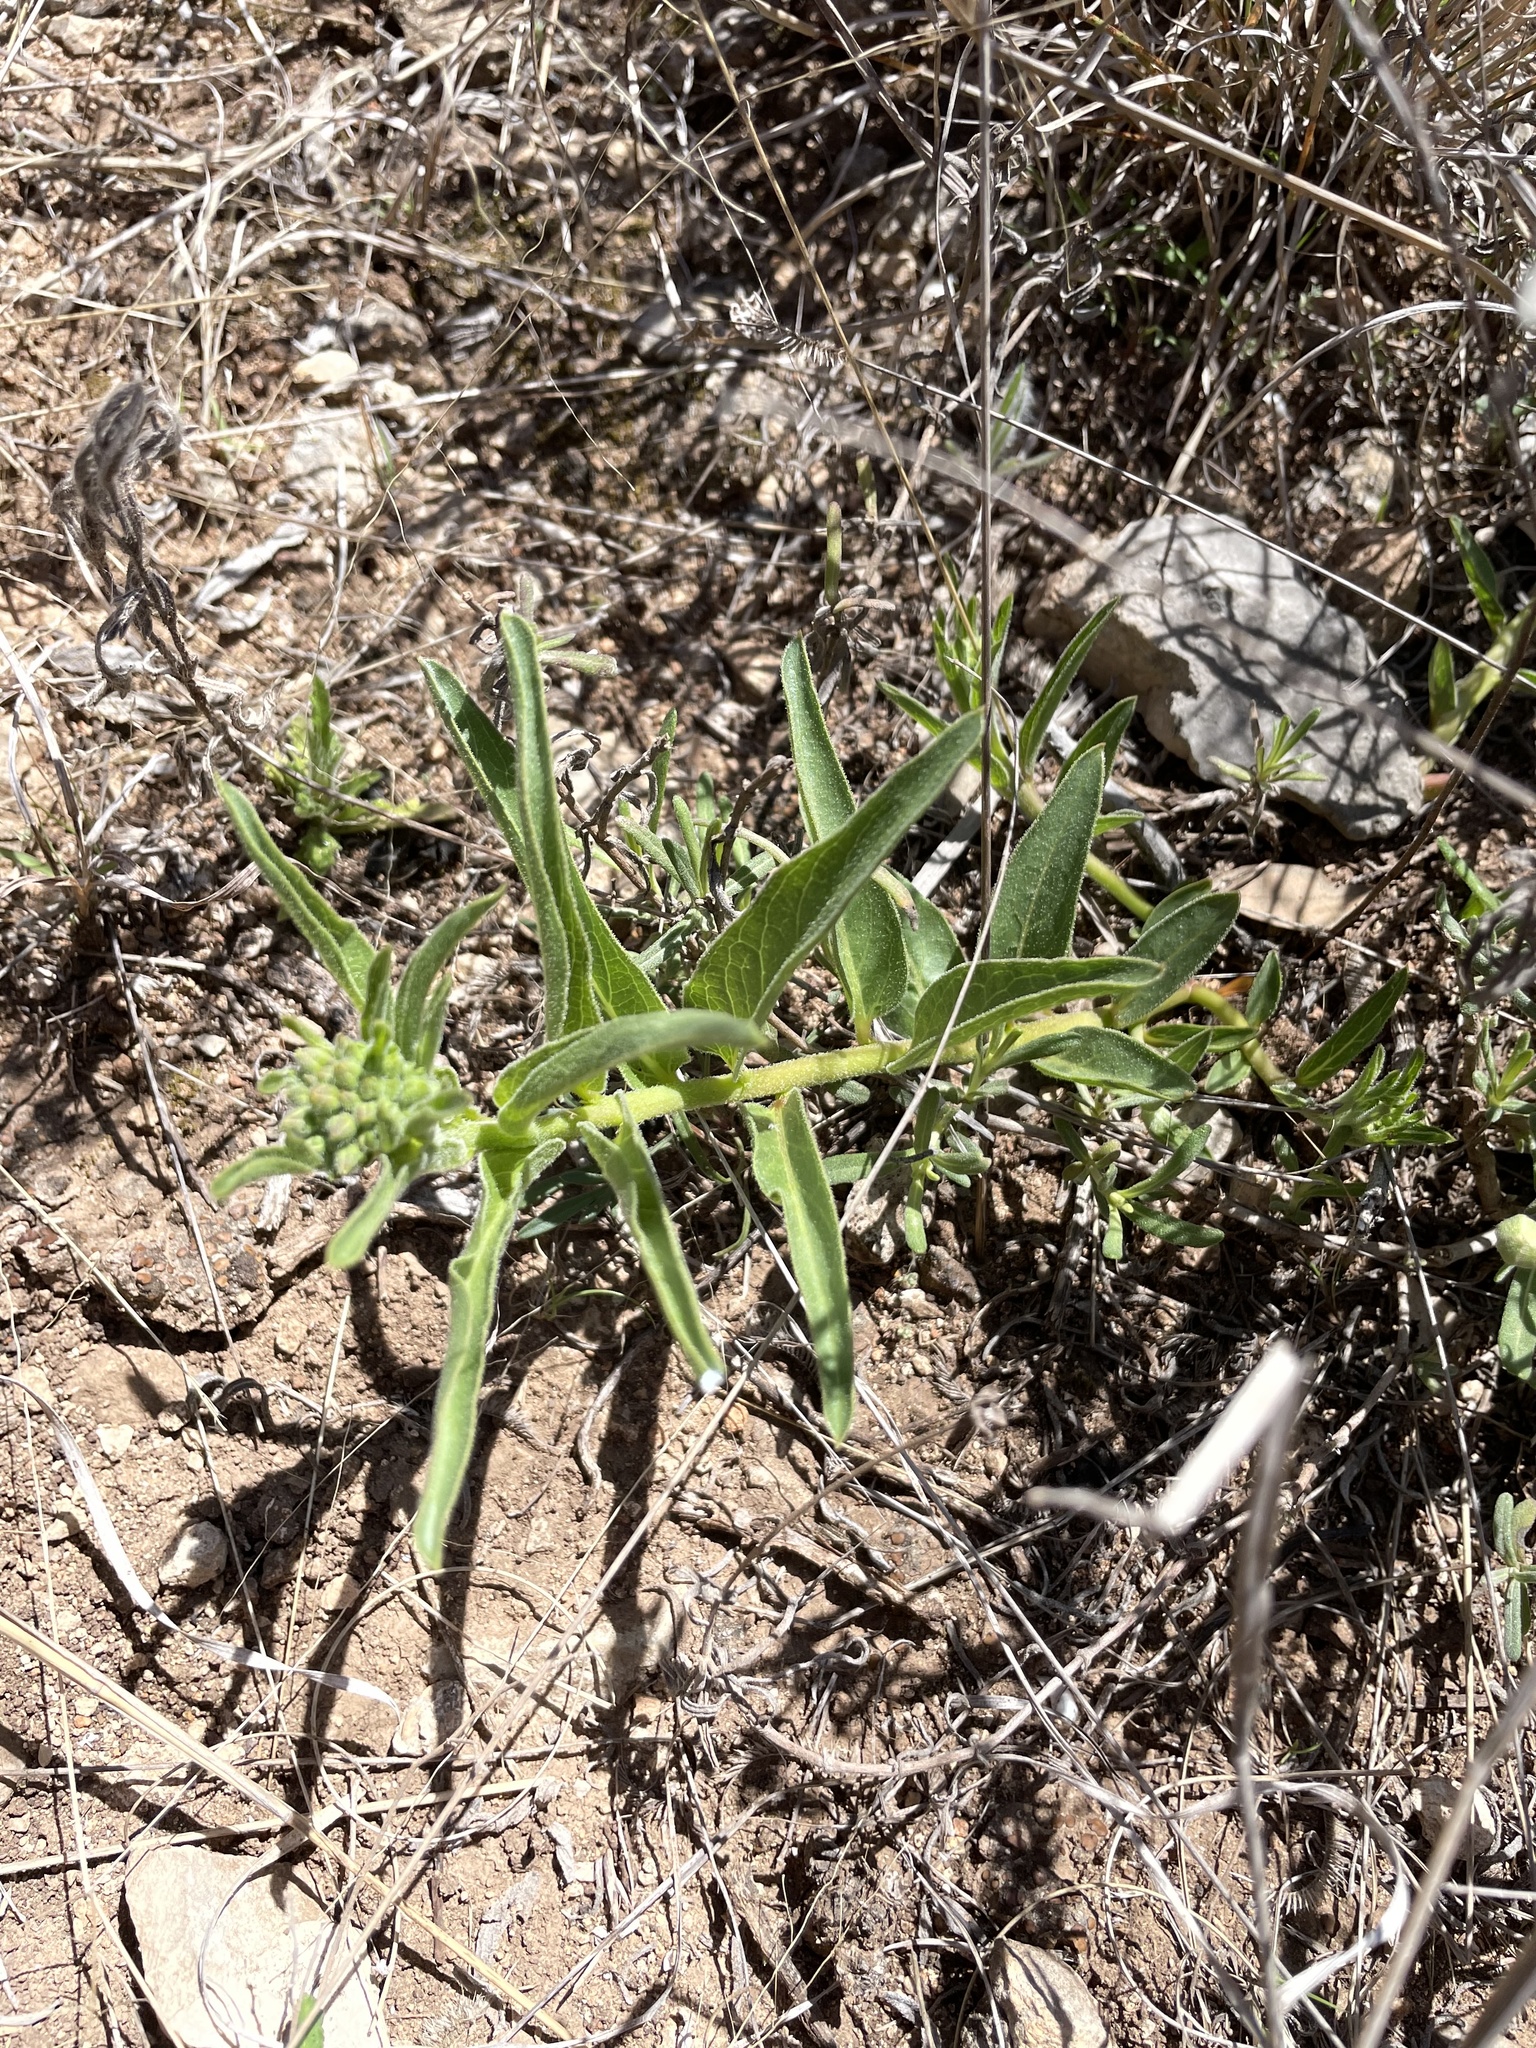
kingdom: Plantae
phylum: Tracheophyta
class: Magnoliopsida
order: Gentianales
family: Apocynaceae
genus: Asclepias
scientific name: Asclepias asperula
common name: Antelope horns
